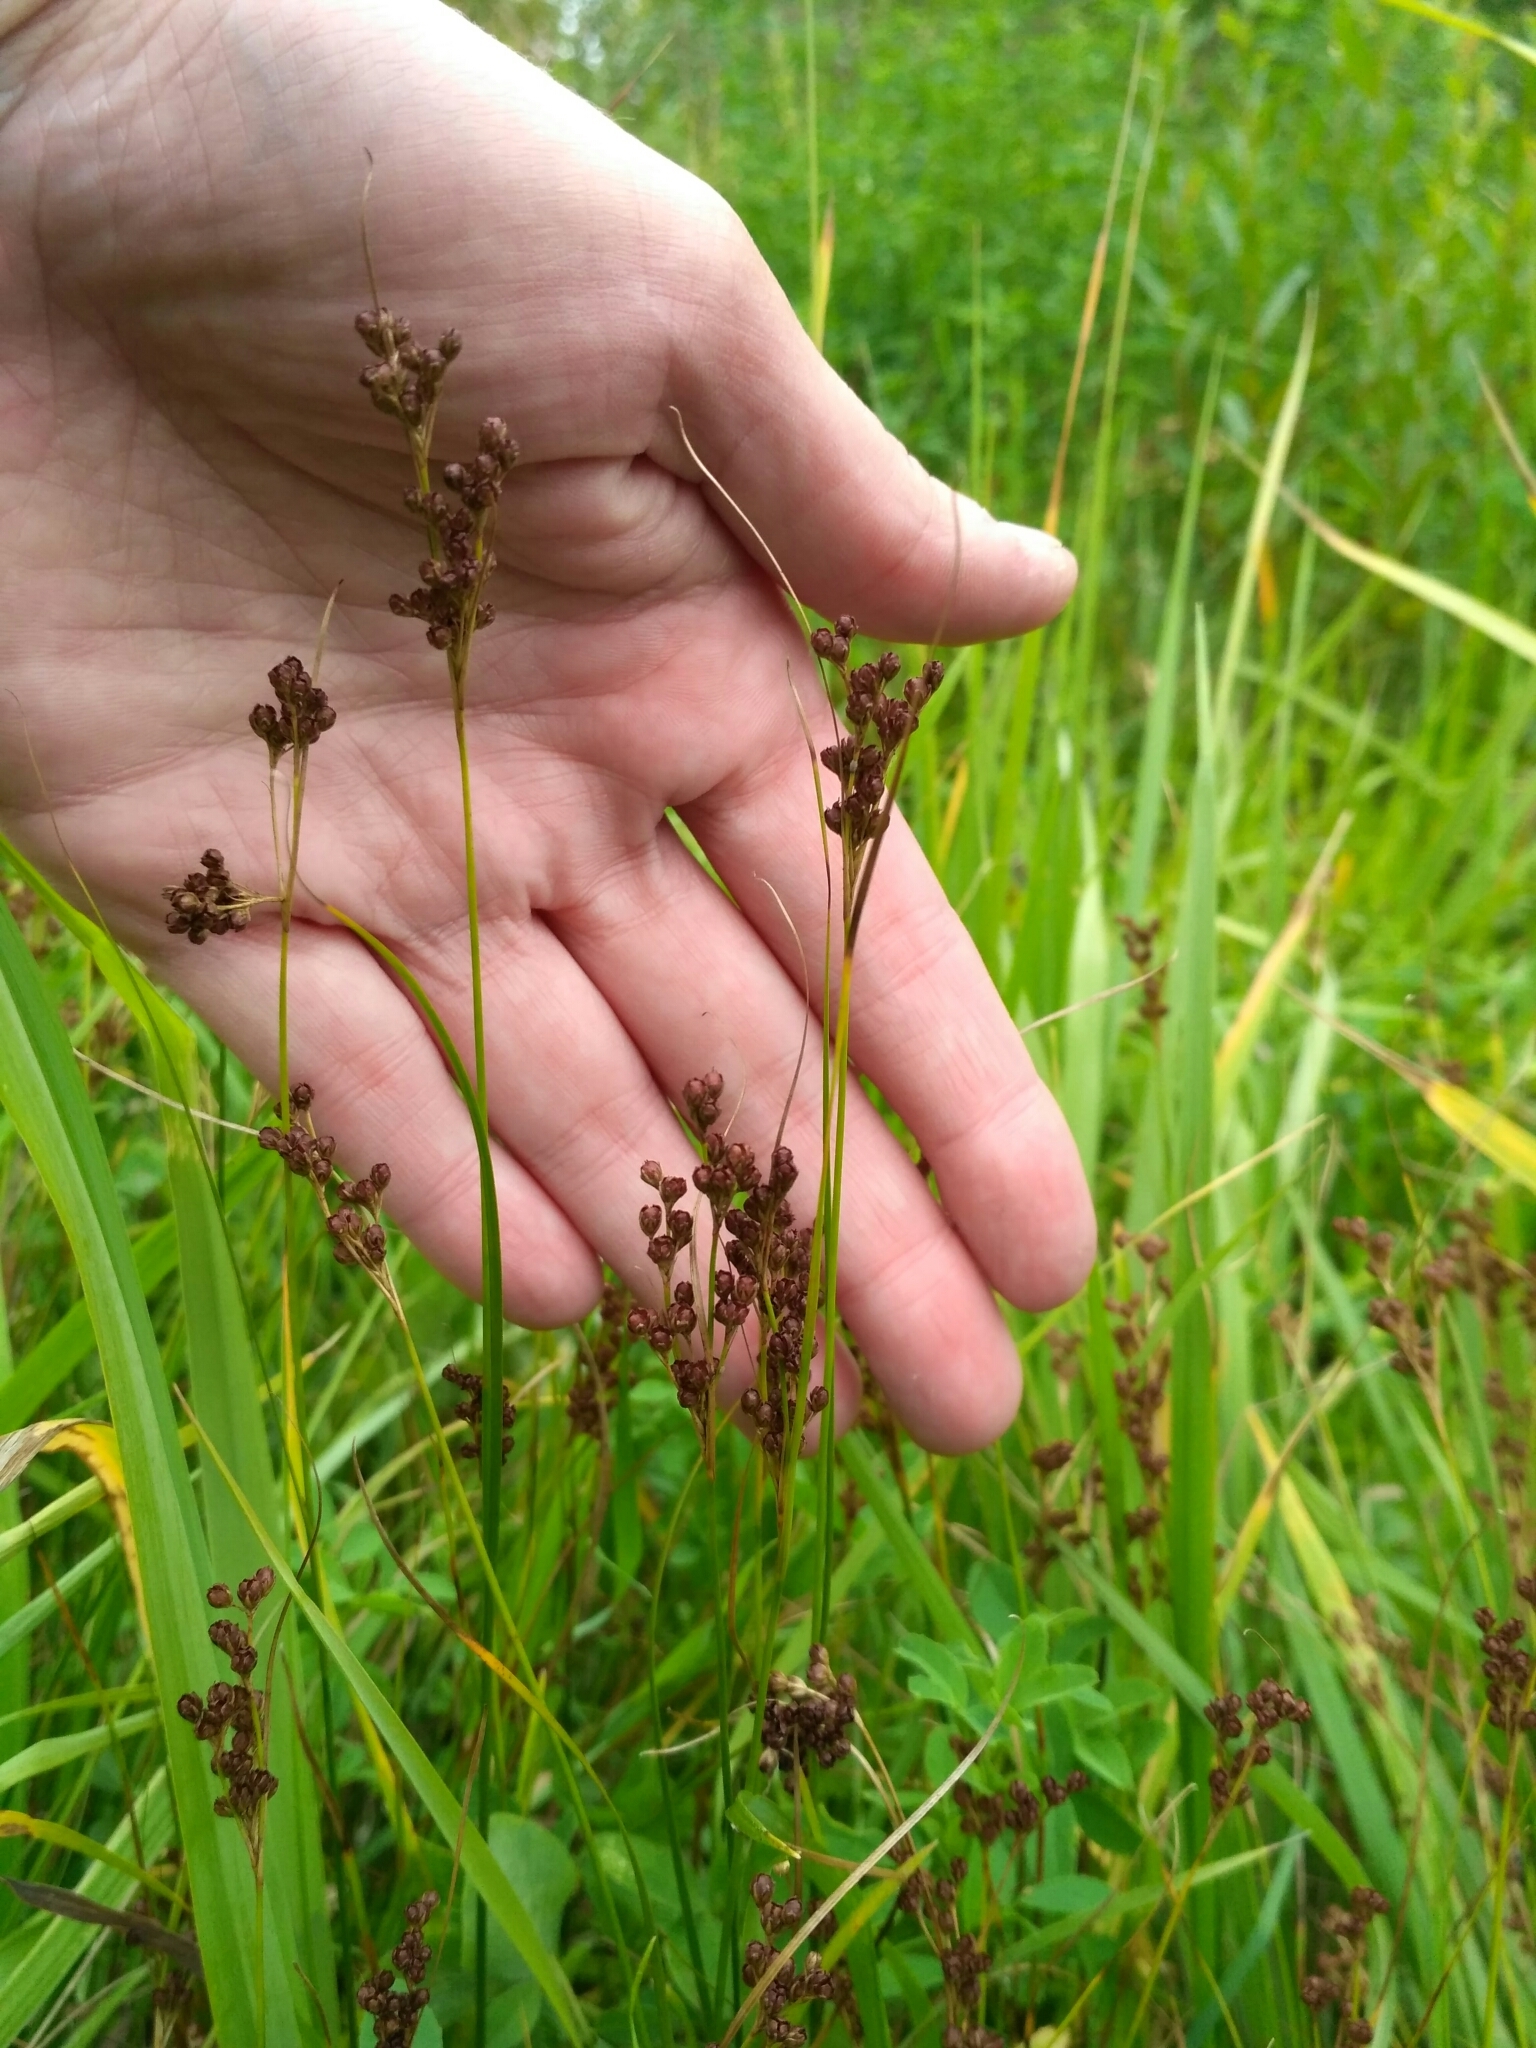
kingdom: Plantae
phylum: Tracheophyta
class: Liliopsida
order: Poales
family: Juncaceae
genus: Juncus
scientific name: Juncus compressus
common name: Round-fruited rush
